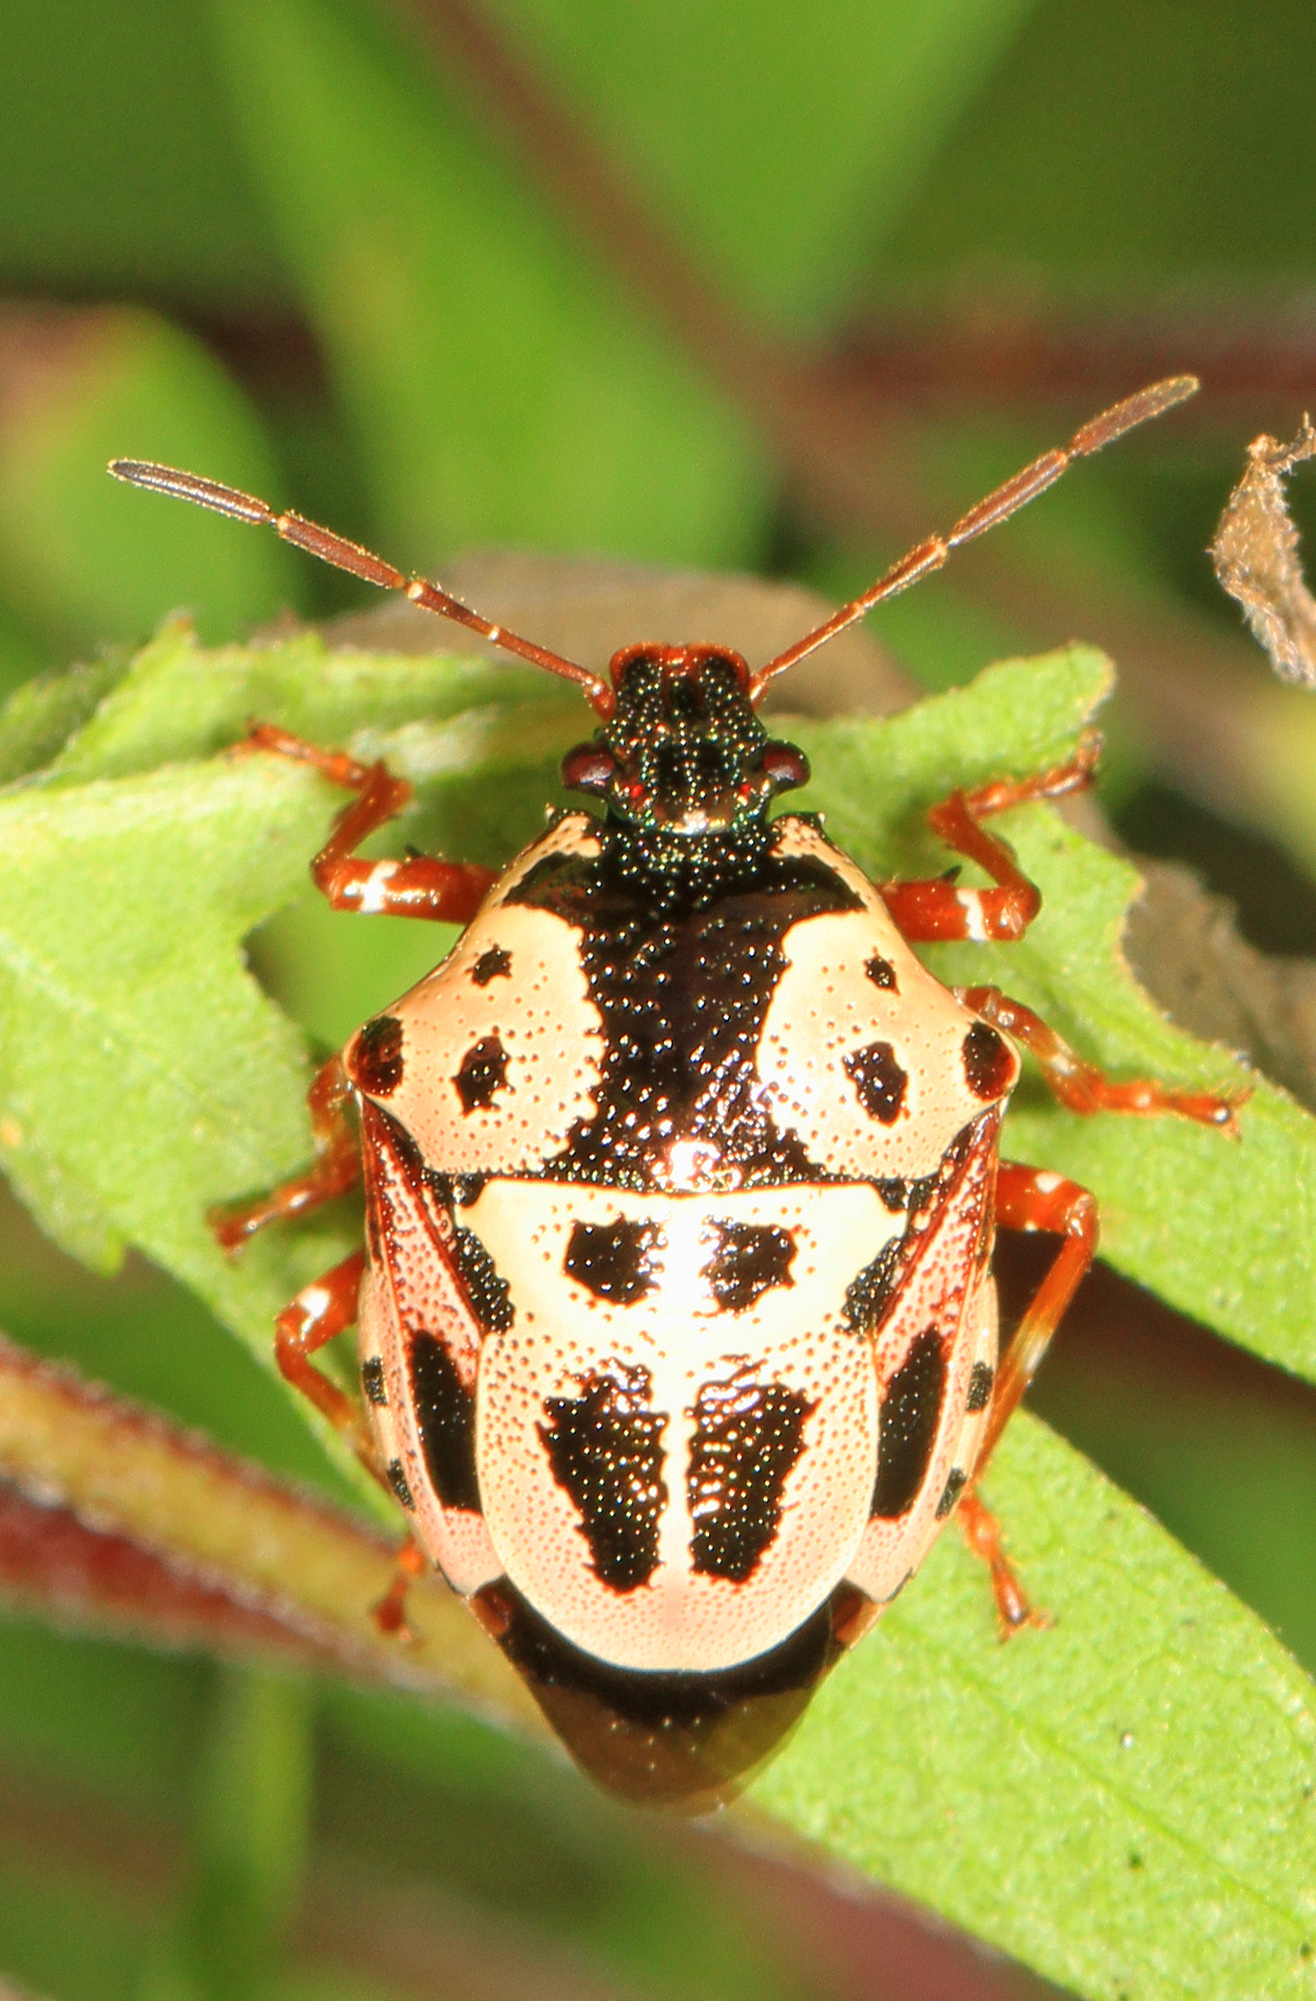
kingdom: Animalia
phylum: Arthropoda
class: Insecta
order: Hemiptera
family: Pentatomidae
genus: Stiretrus
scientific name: Stiretrus anchorago
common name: Anchor stink bug
